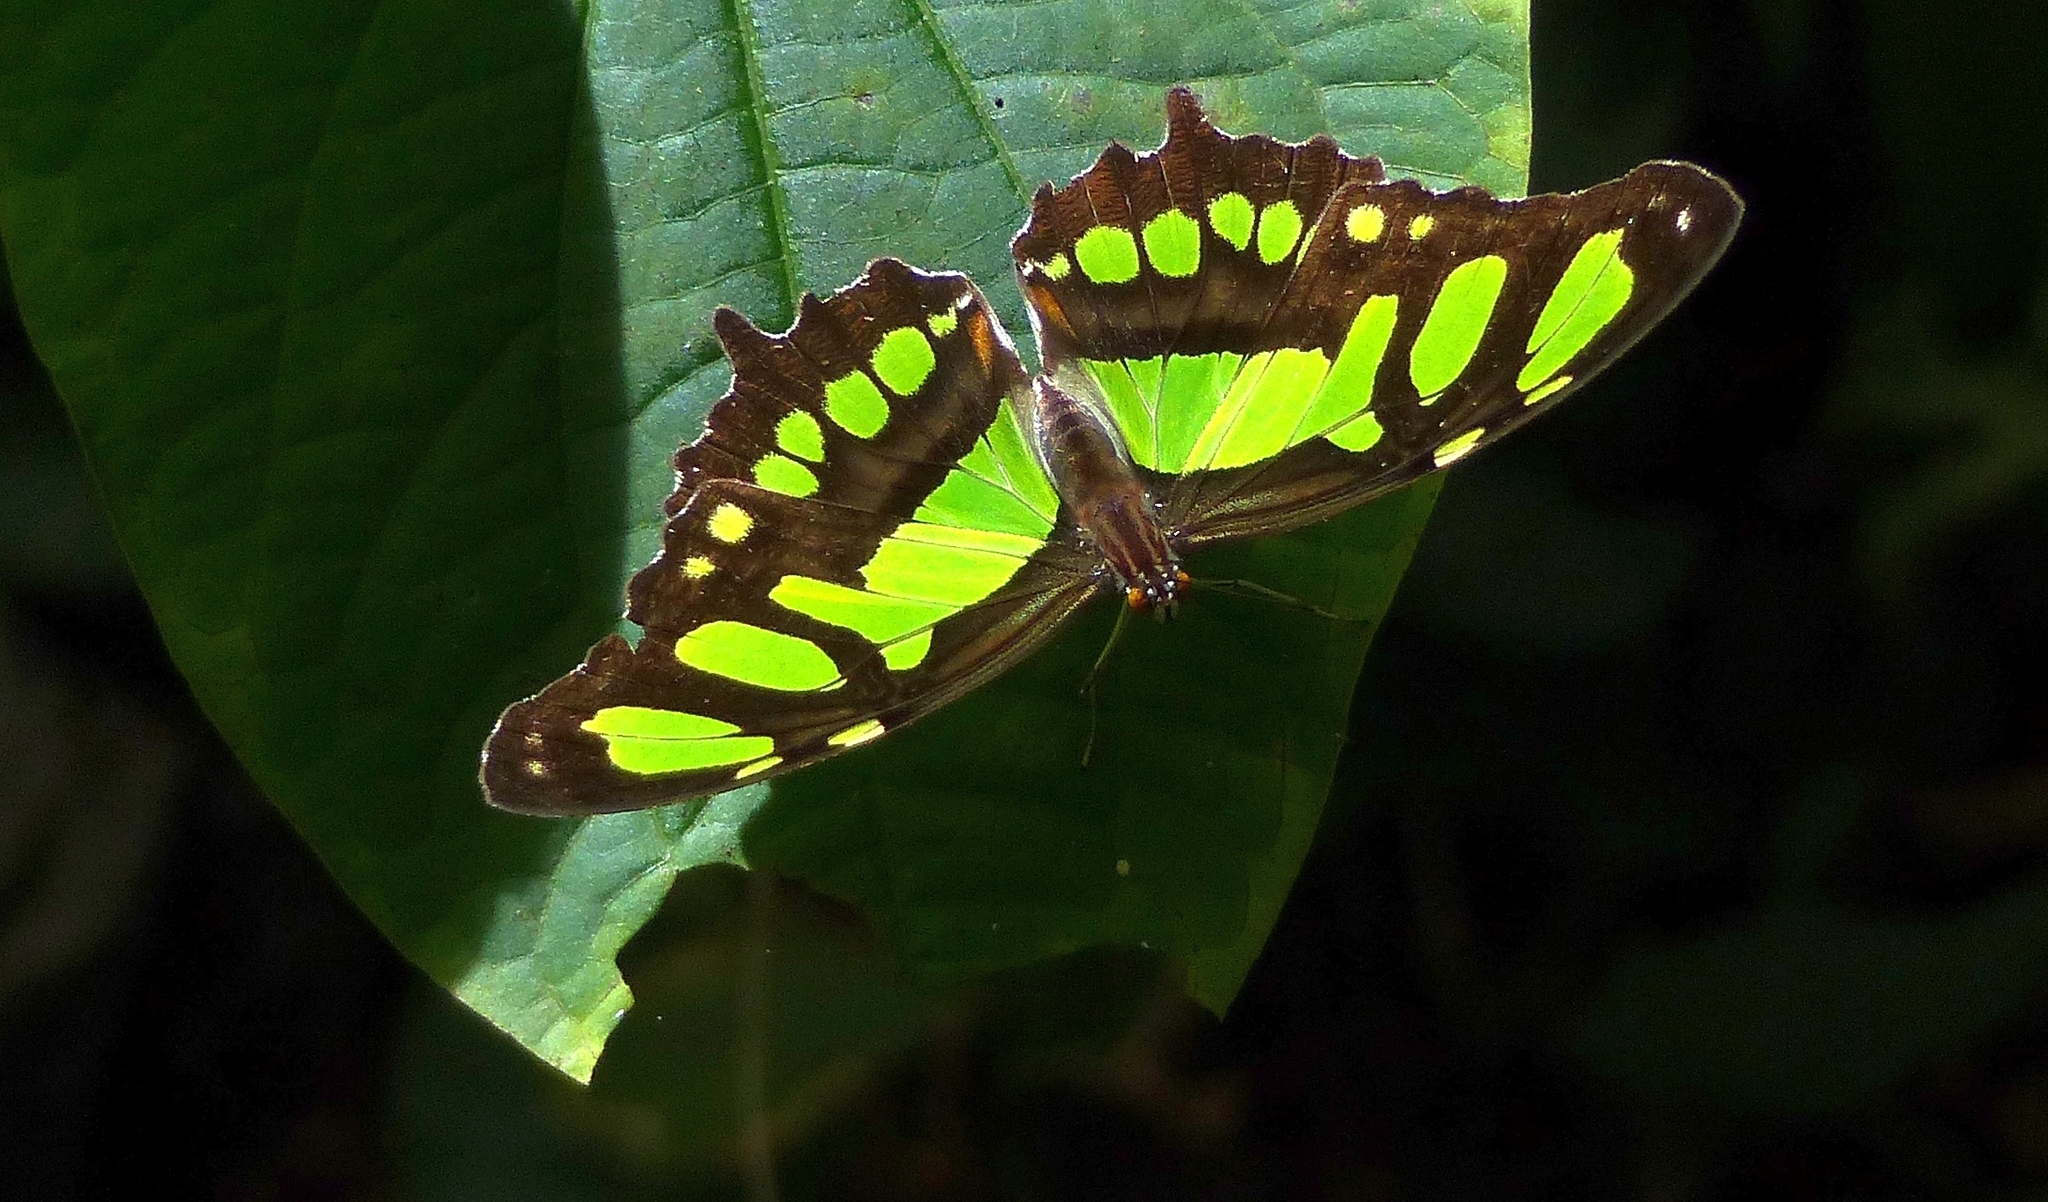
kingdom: Animalia
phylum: Arthropoda
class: Insecta
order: Lepidoptera
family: Nymphalidae
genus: Siproeta
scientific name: Siproeta stelenes
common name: Malachite
